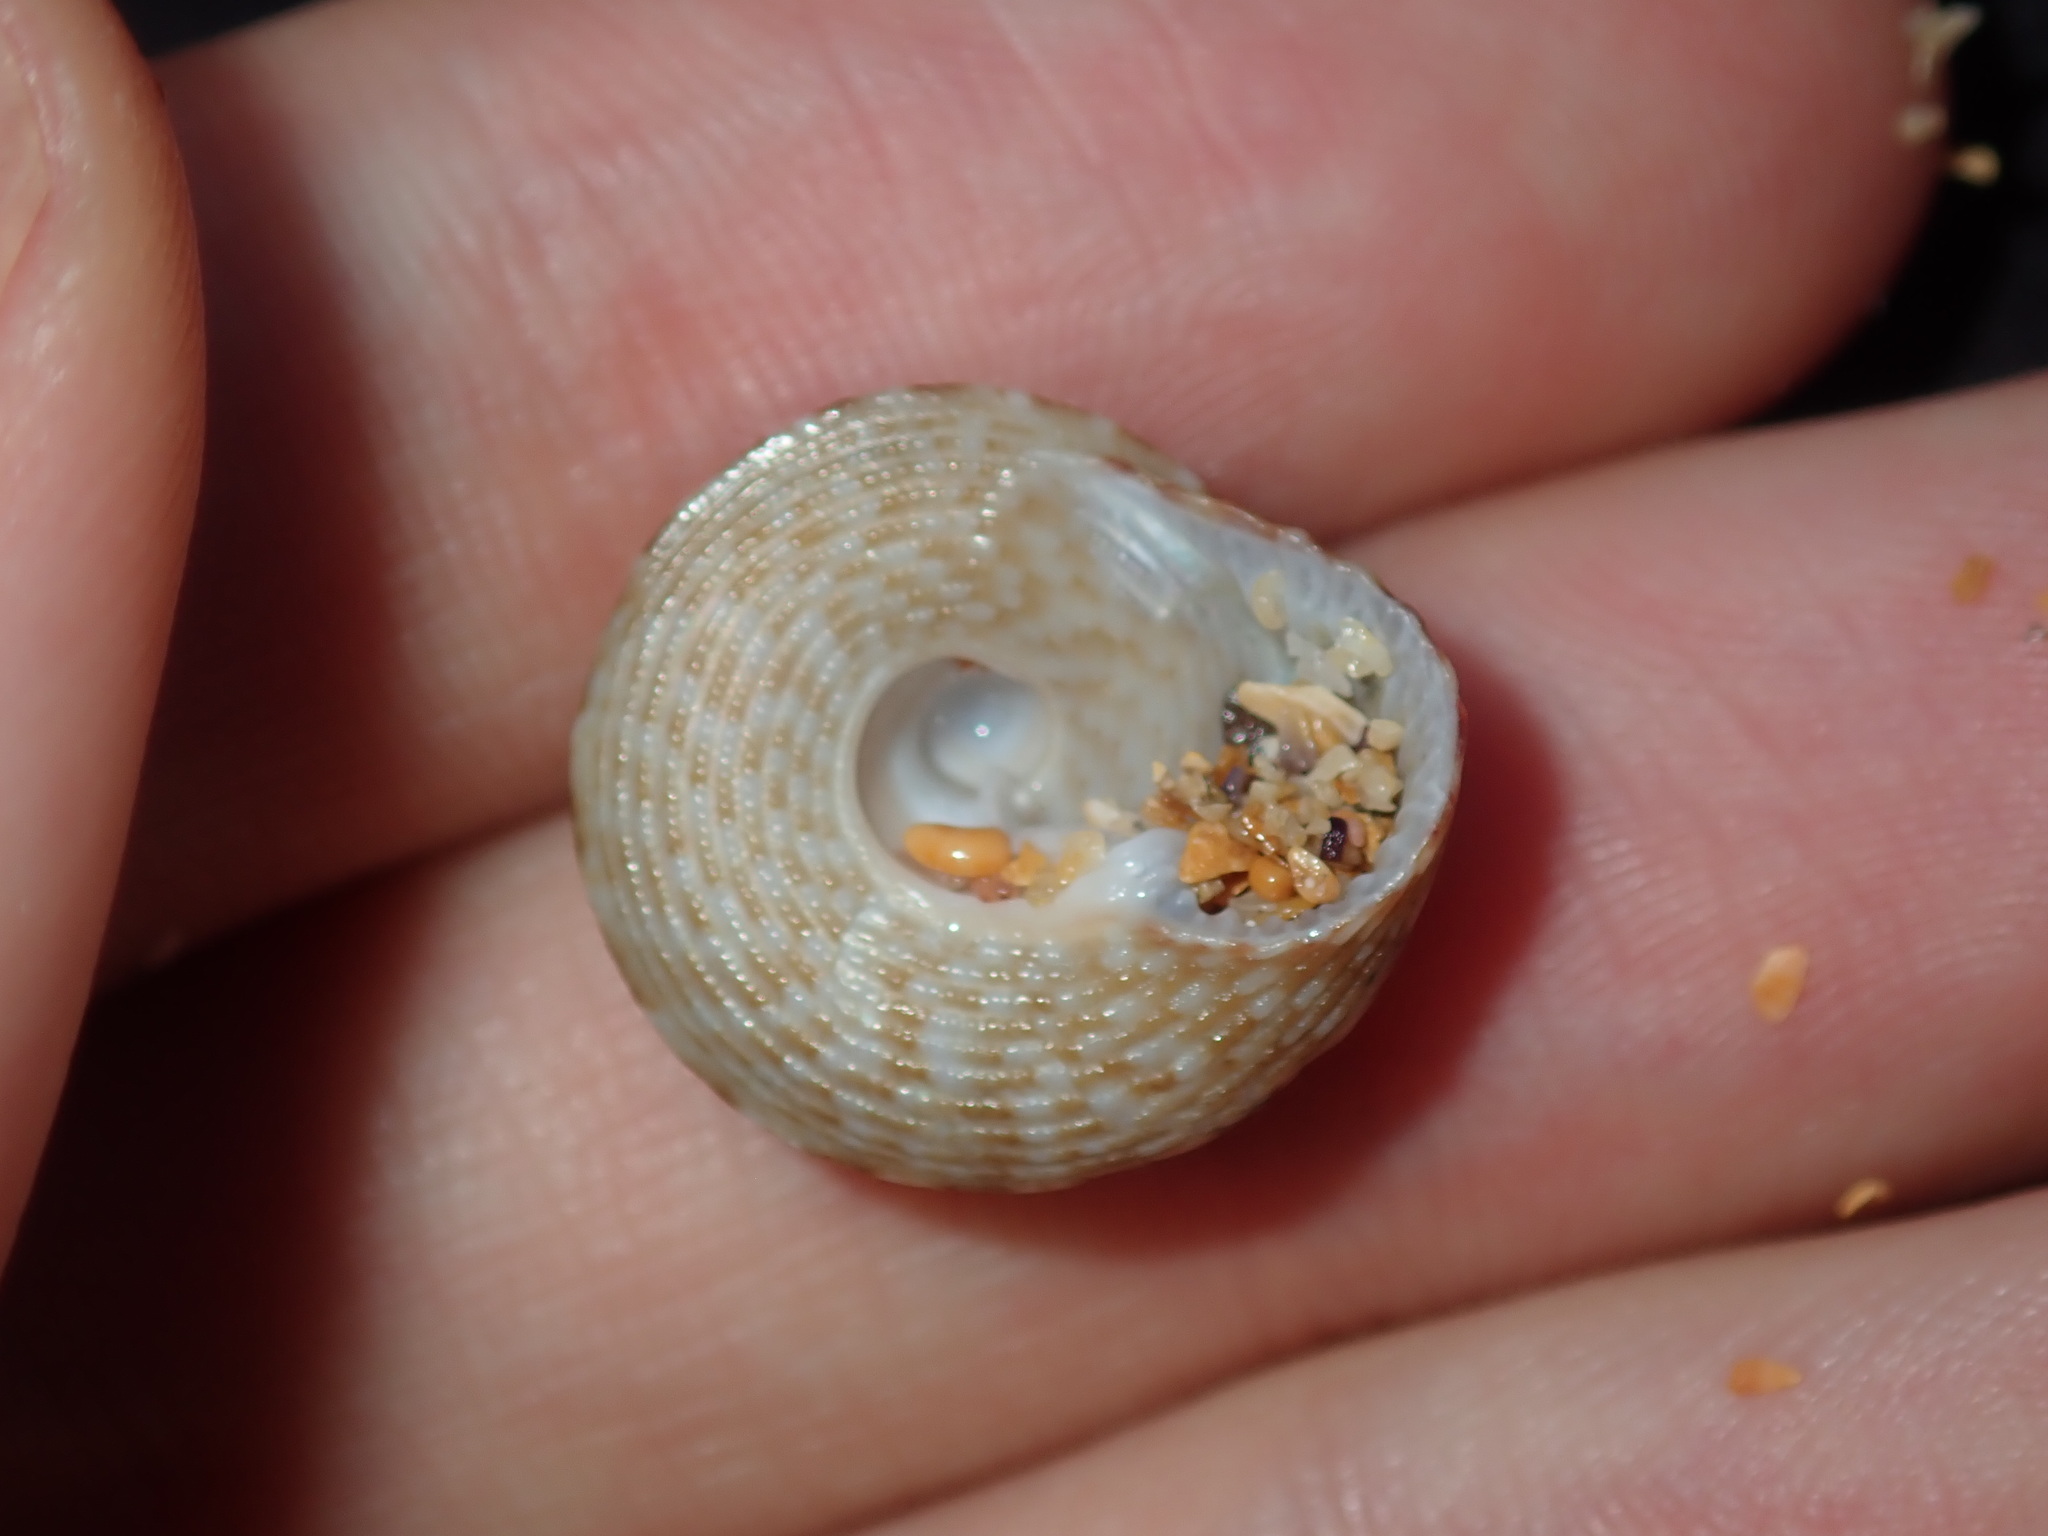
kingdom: Animalia
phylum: Mollusca
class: Gastropoda
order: Trochida
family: Trochidae
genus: Clanculus
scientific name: Clanculus brunneus
